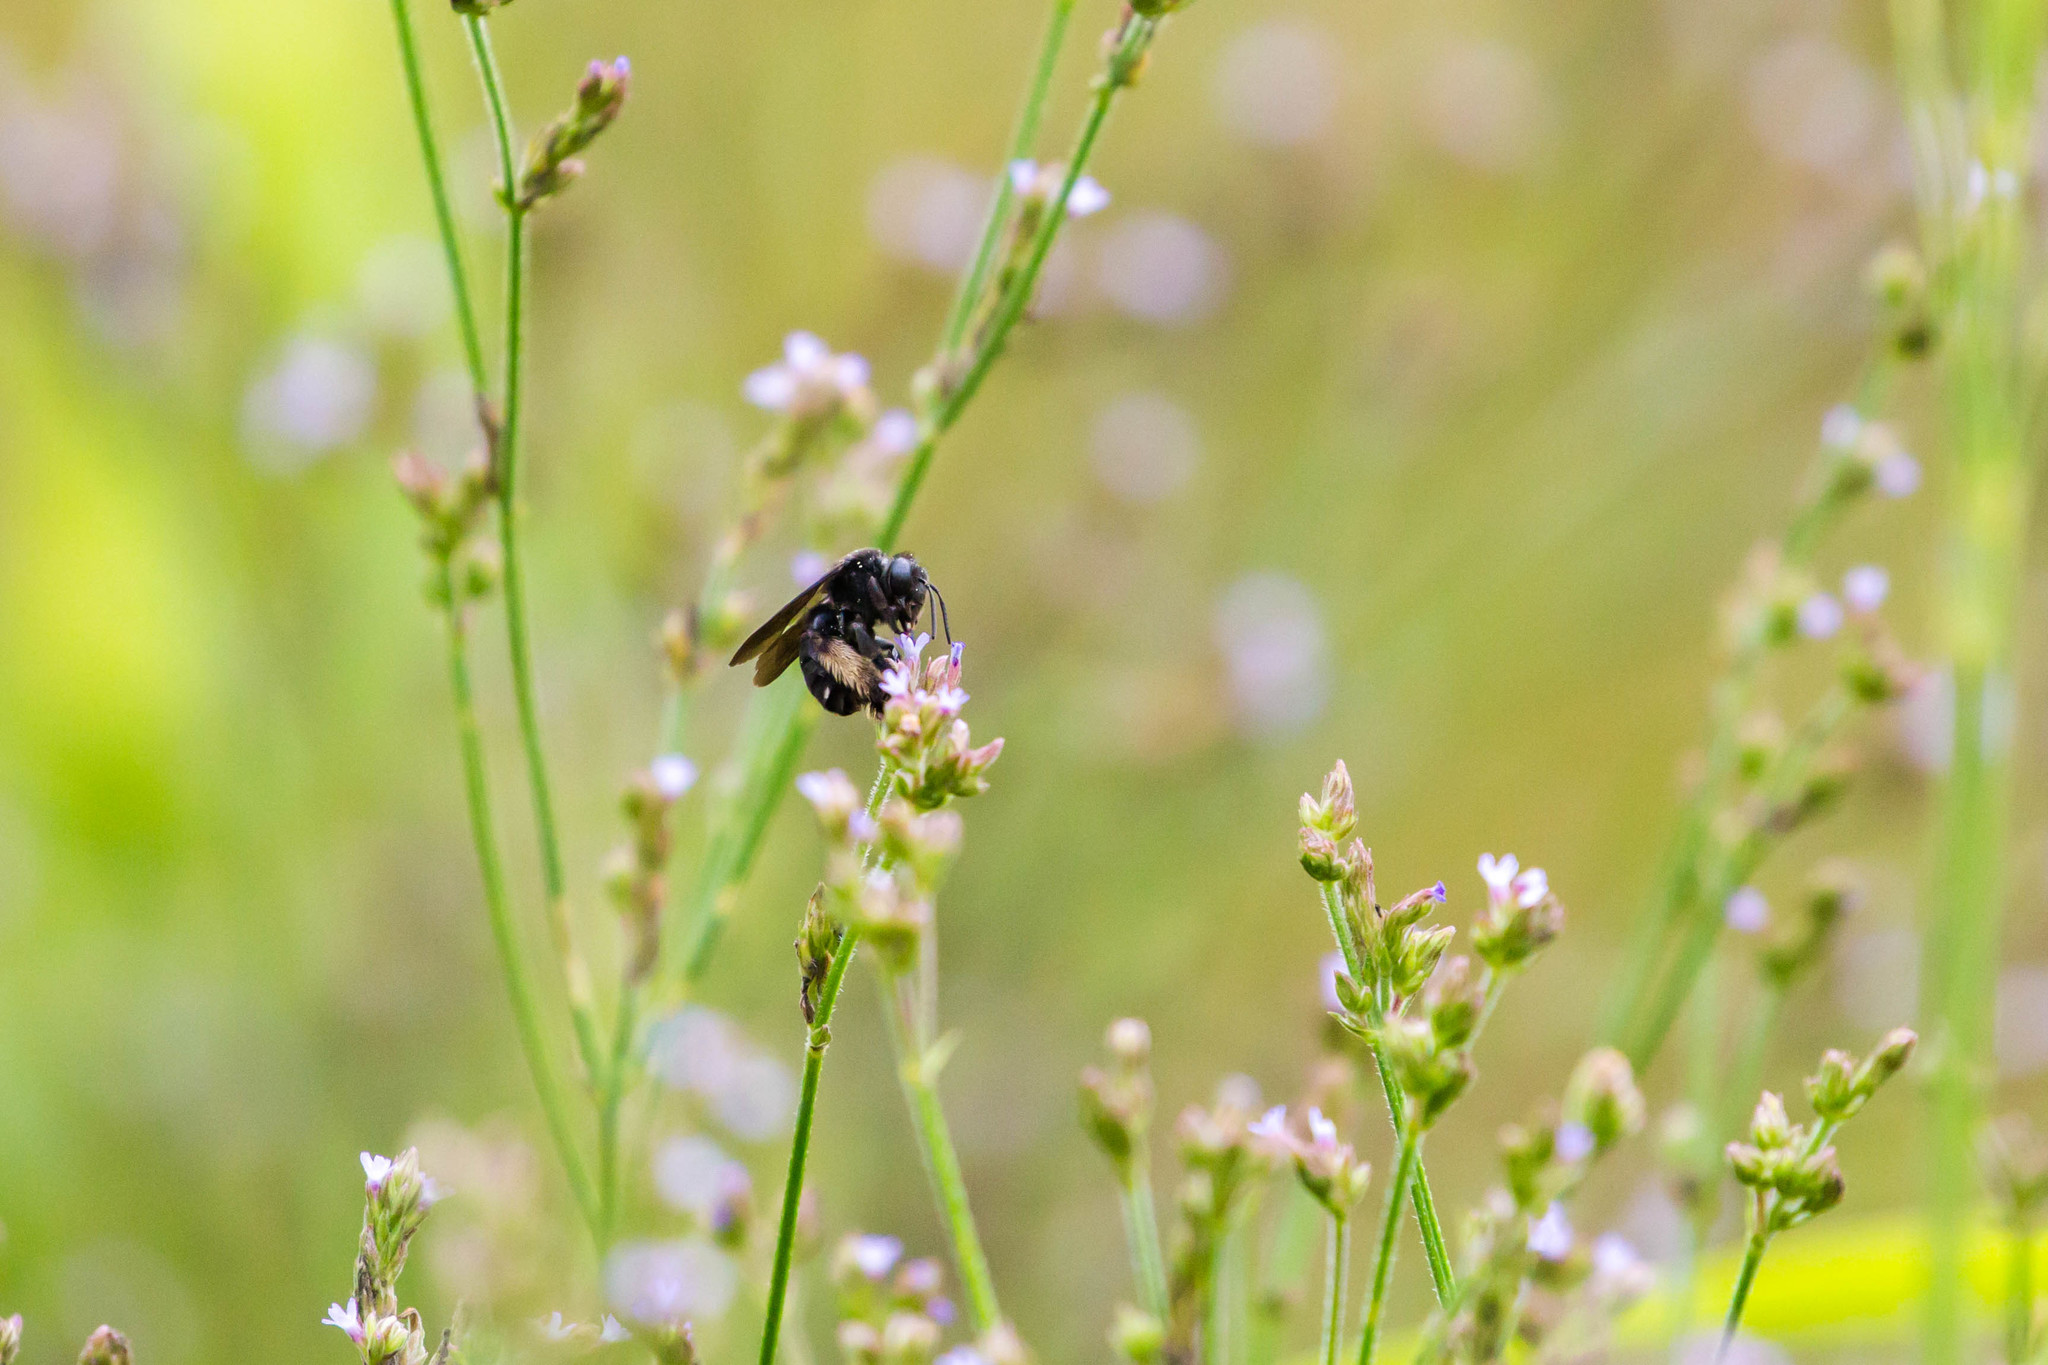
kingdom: Animalia
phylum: Arthropoda
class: Insecta
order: Hymenoptera
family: Apidae
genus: Melissodes
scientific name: Melissodes bimaculatus
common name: Two-spotted long-horned bee
